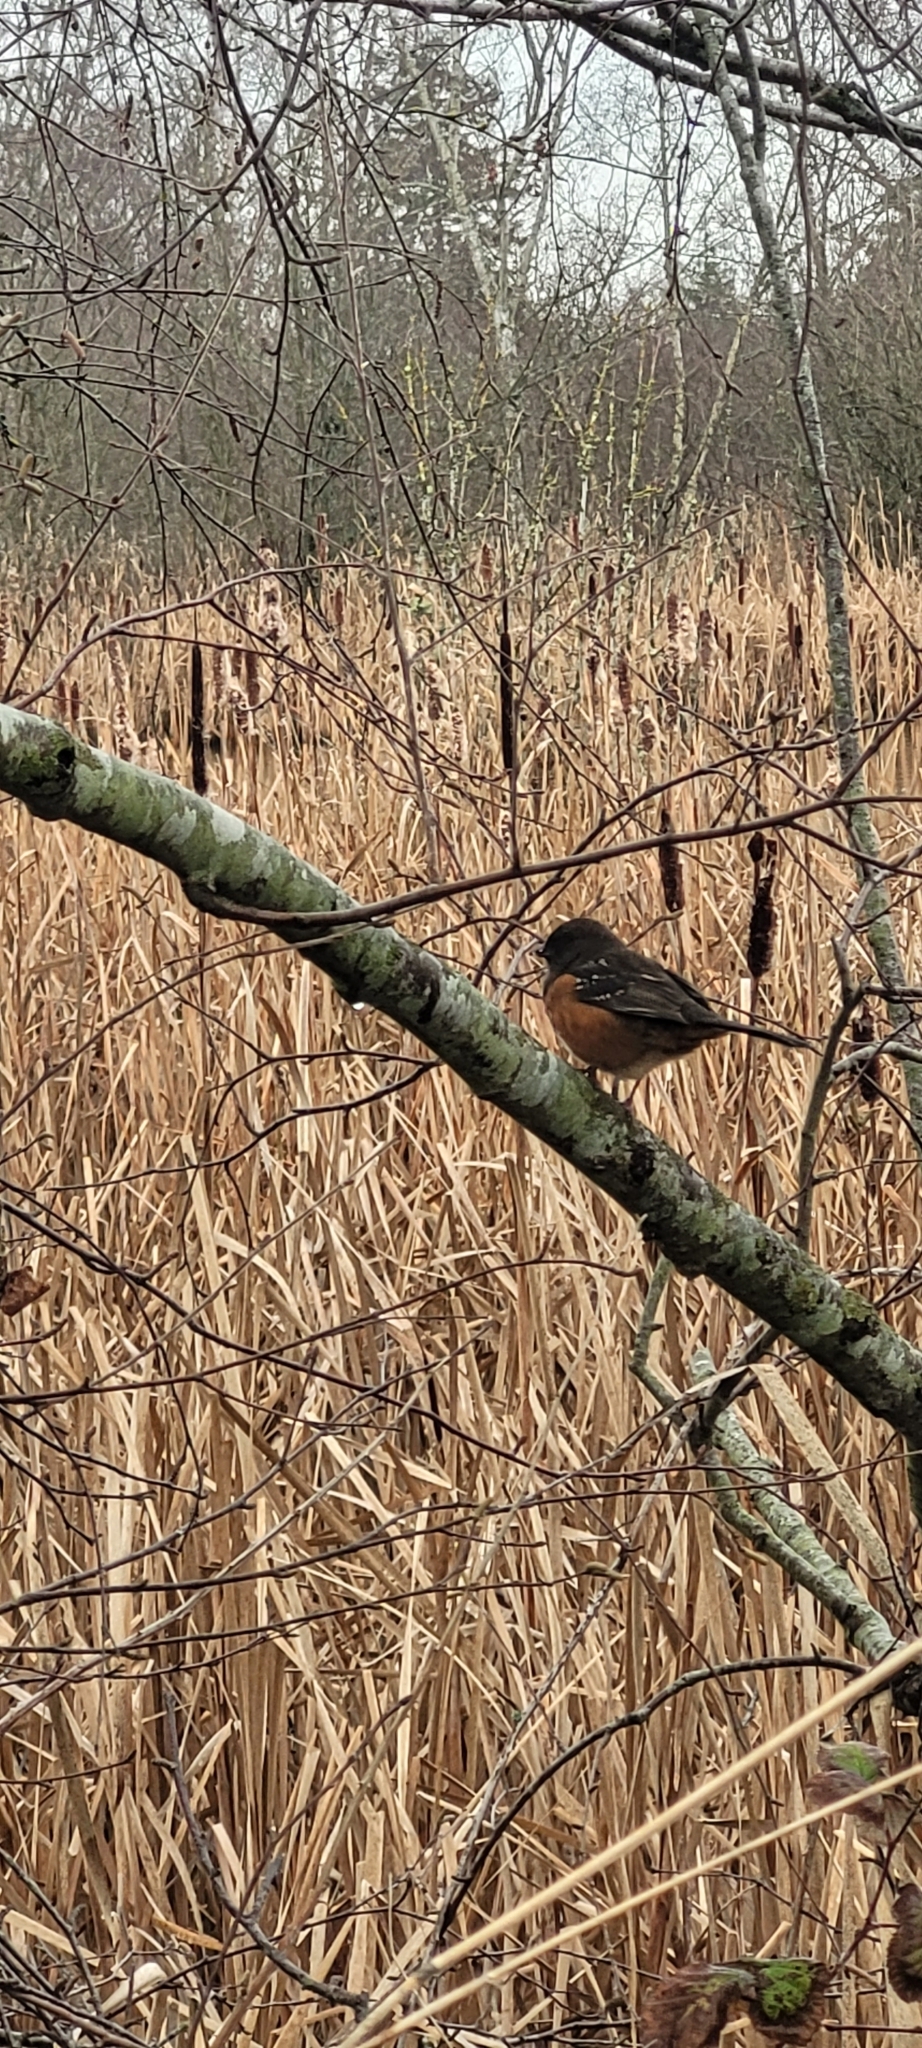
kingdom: Animalia
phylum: Chordata
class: Aves
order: Passeriformes
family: Passerellidae
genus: Pipilo
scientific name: Pipilo maculatus
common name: Spotted towhee
